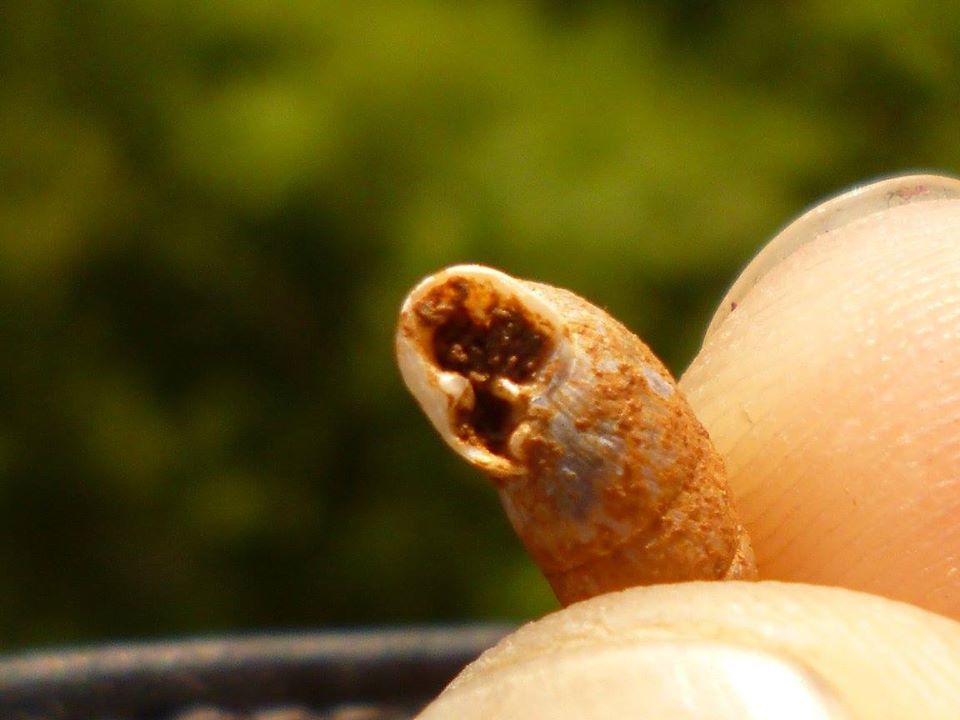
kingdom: Animalia
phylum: Mollusca
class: Gastropoda
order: Stylommatophora
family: Enidae
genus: Chondrula
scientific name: Chondrula quinquedentata
